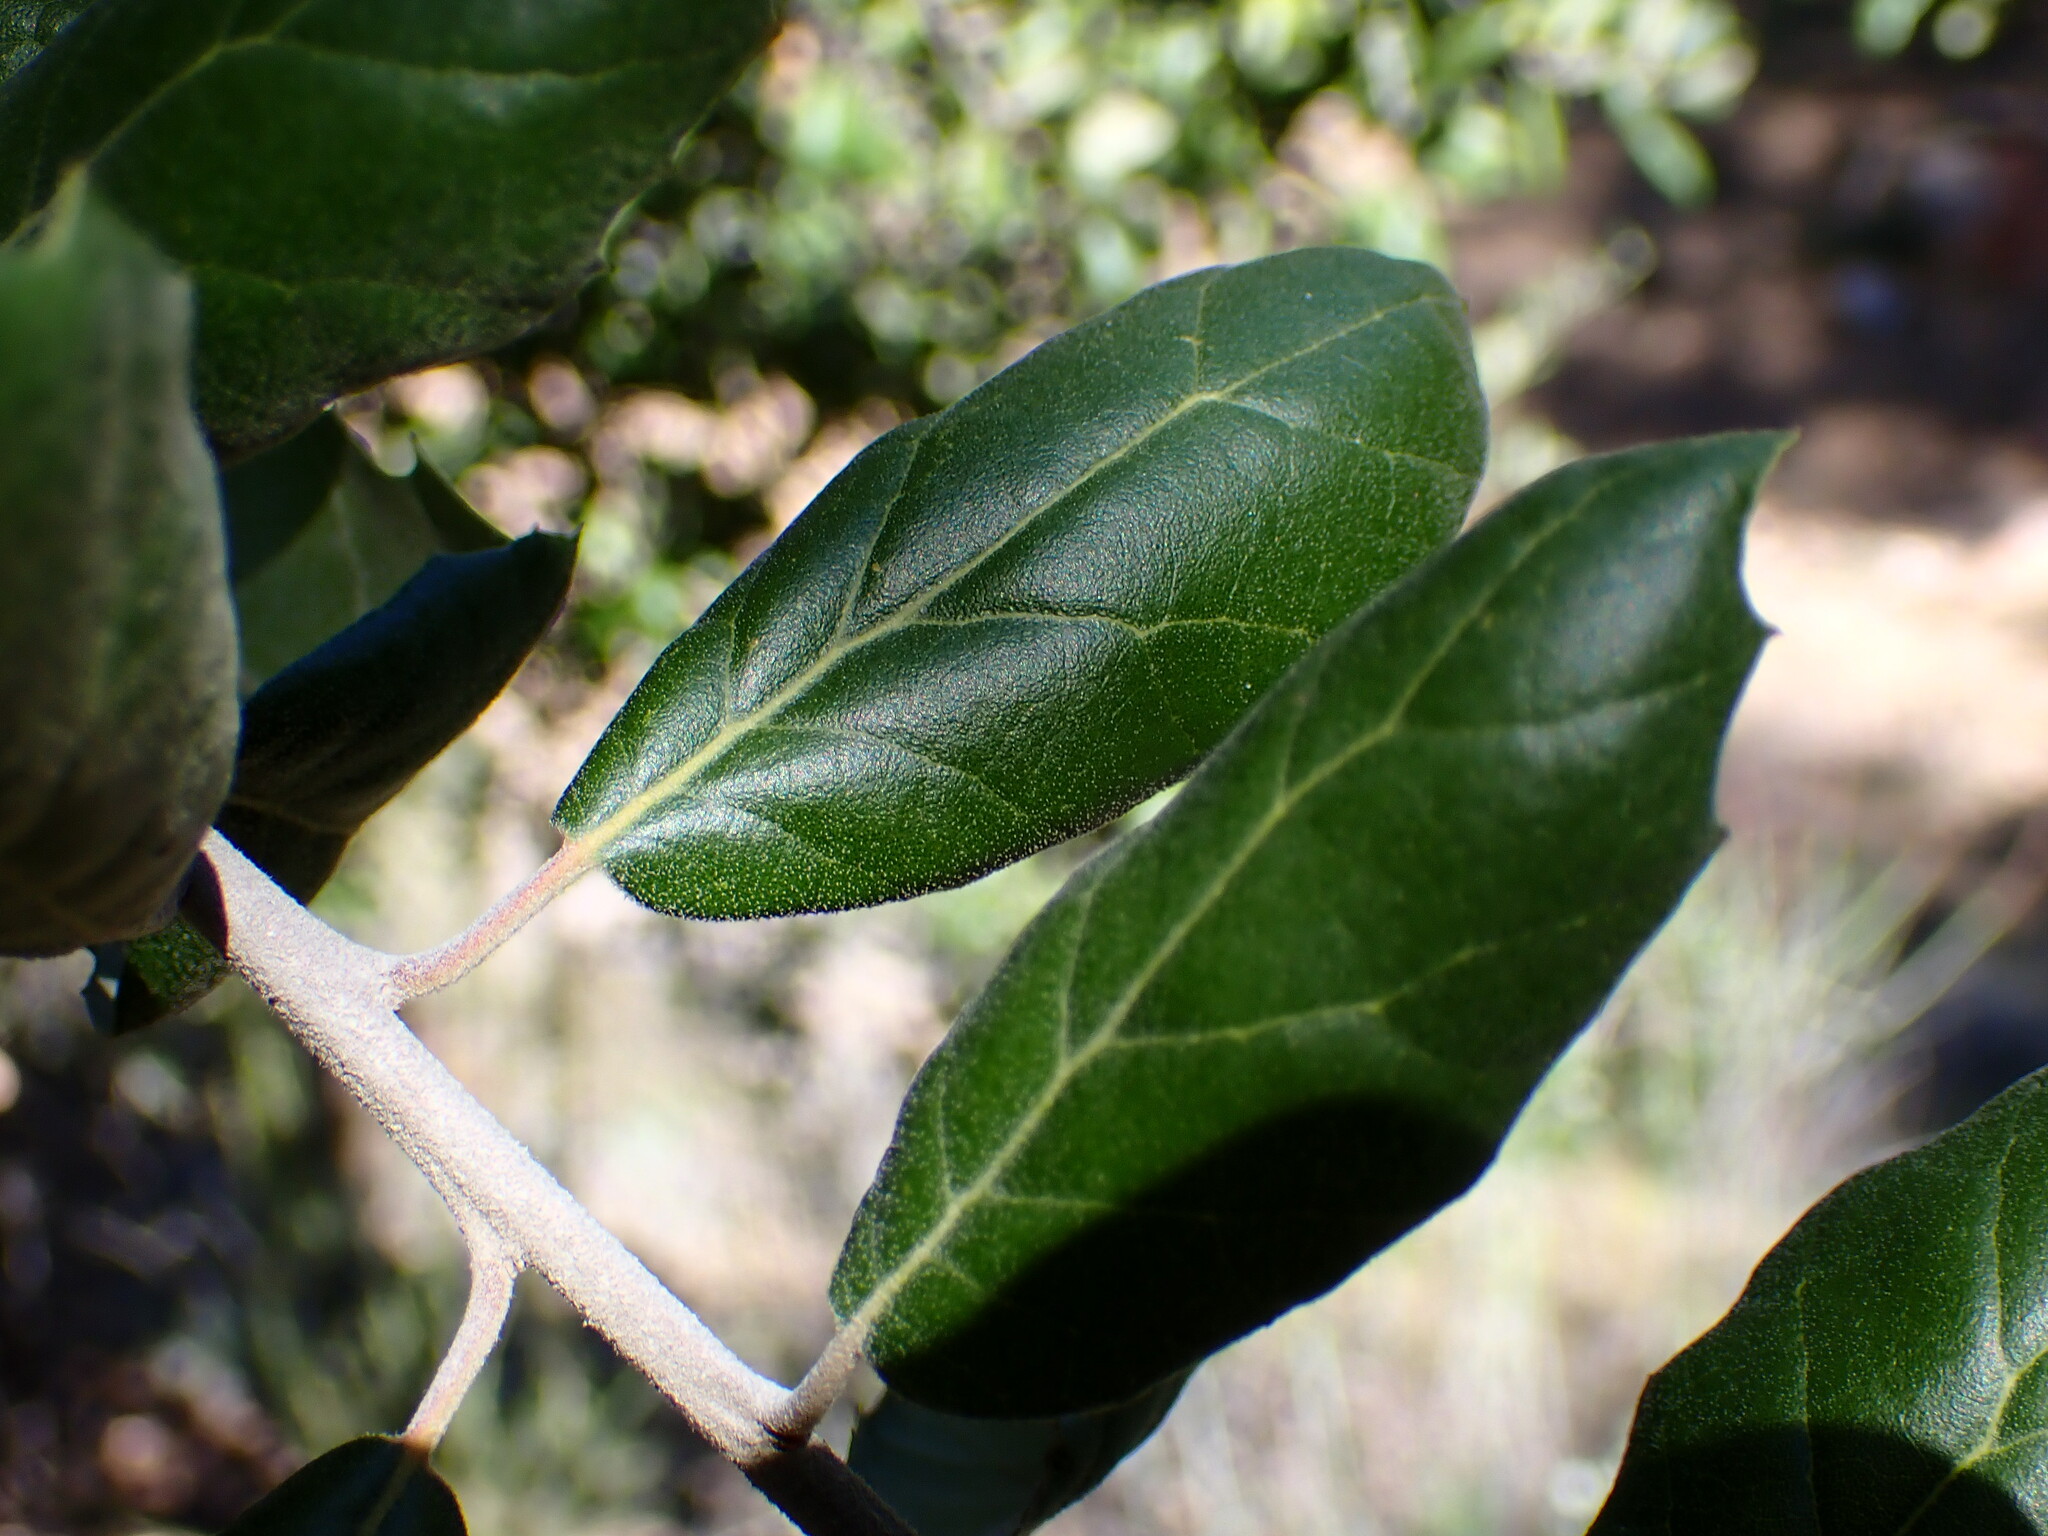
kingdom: Plantae
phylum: Tracheophyta
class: Magnoliopsida
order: Fagales
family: Fagaceae
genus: Quercus
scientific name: Quercus agrifolia
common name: California live oak
